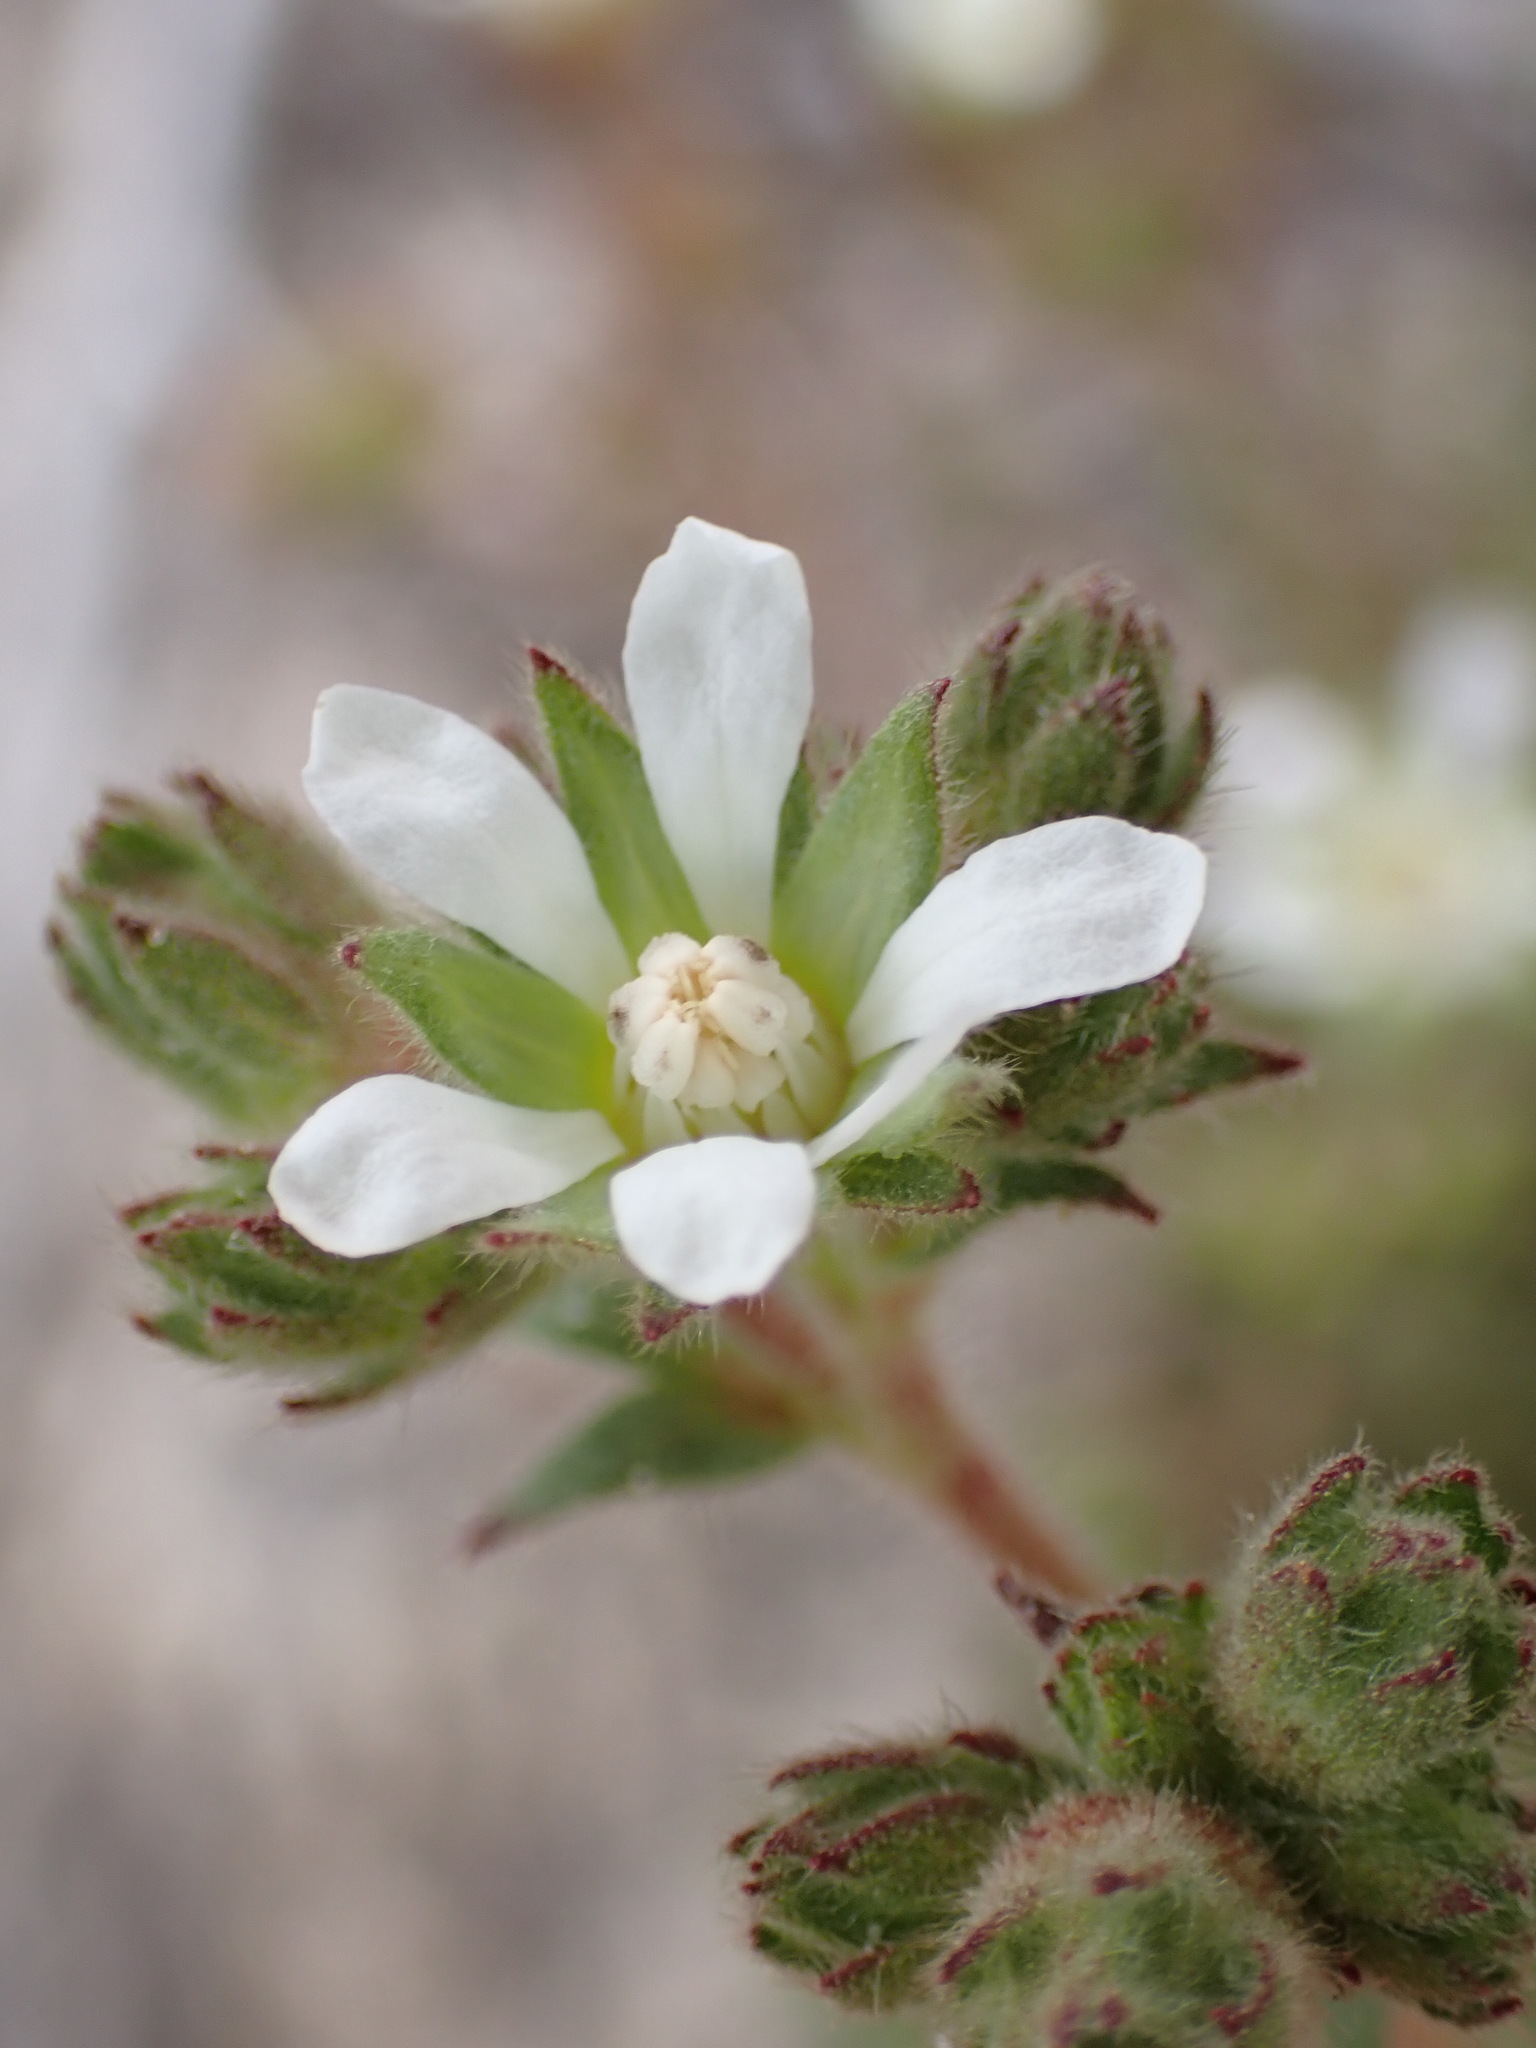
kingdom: Plantae
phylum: Tracheophyta
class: Magnoliopsida
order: Rosales
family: Rosaceae
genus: Potentilla
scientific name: Potentilla
